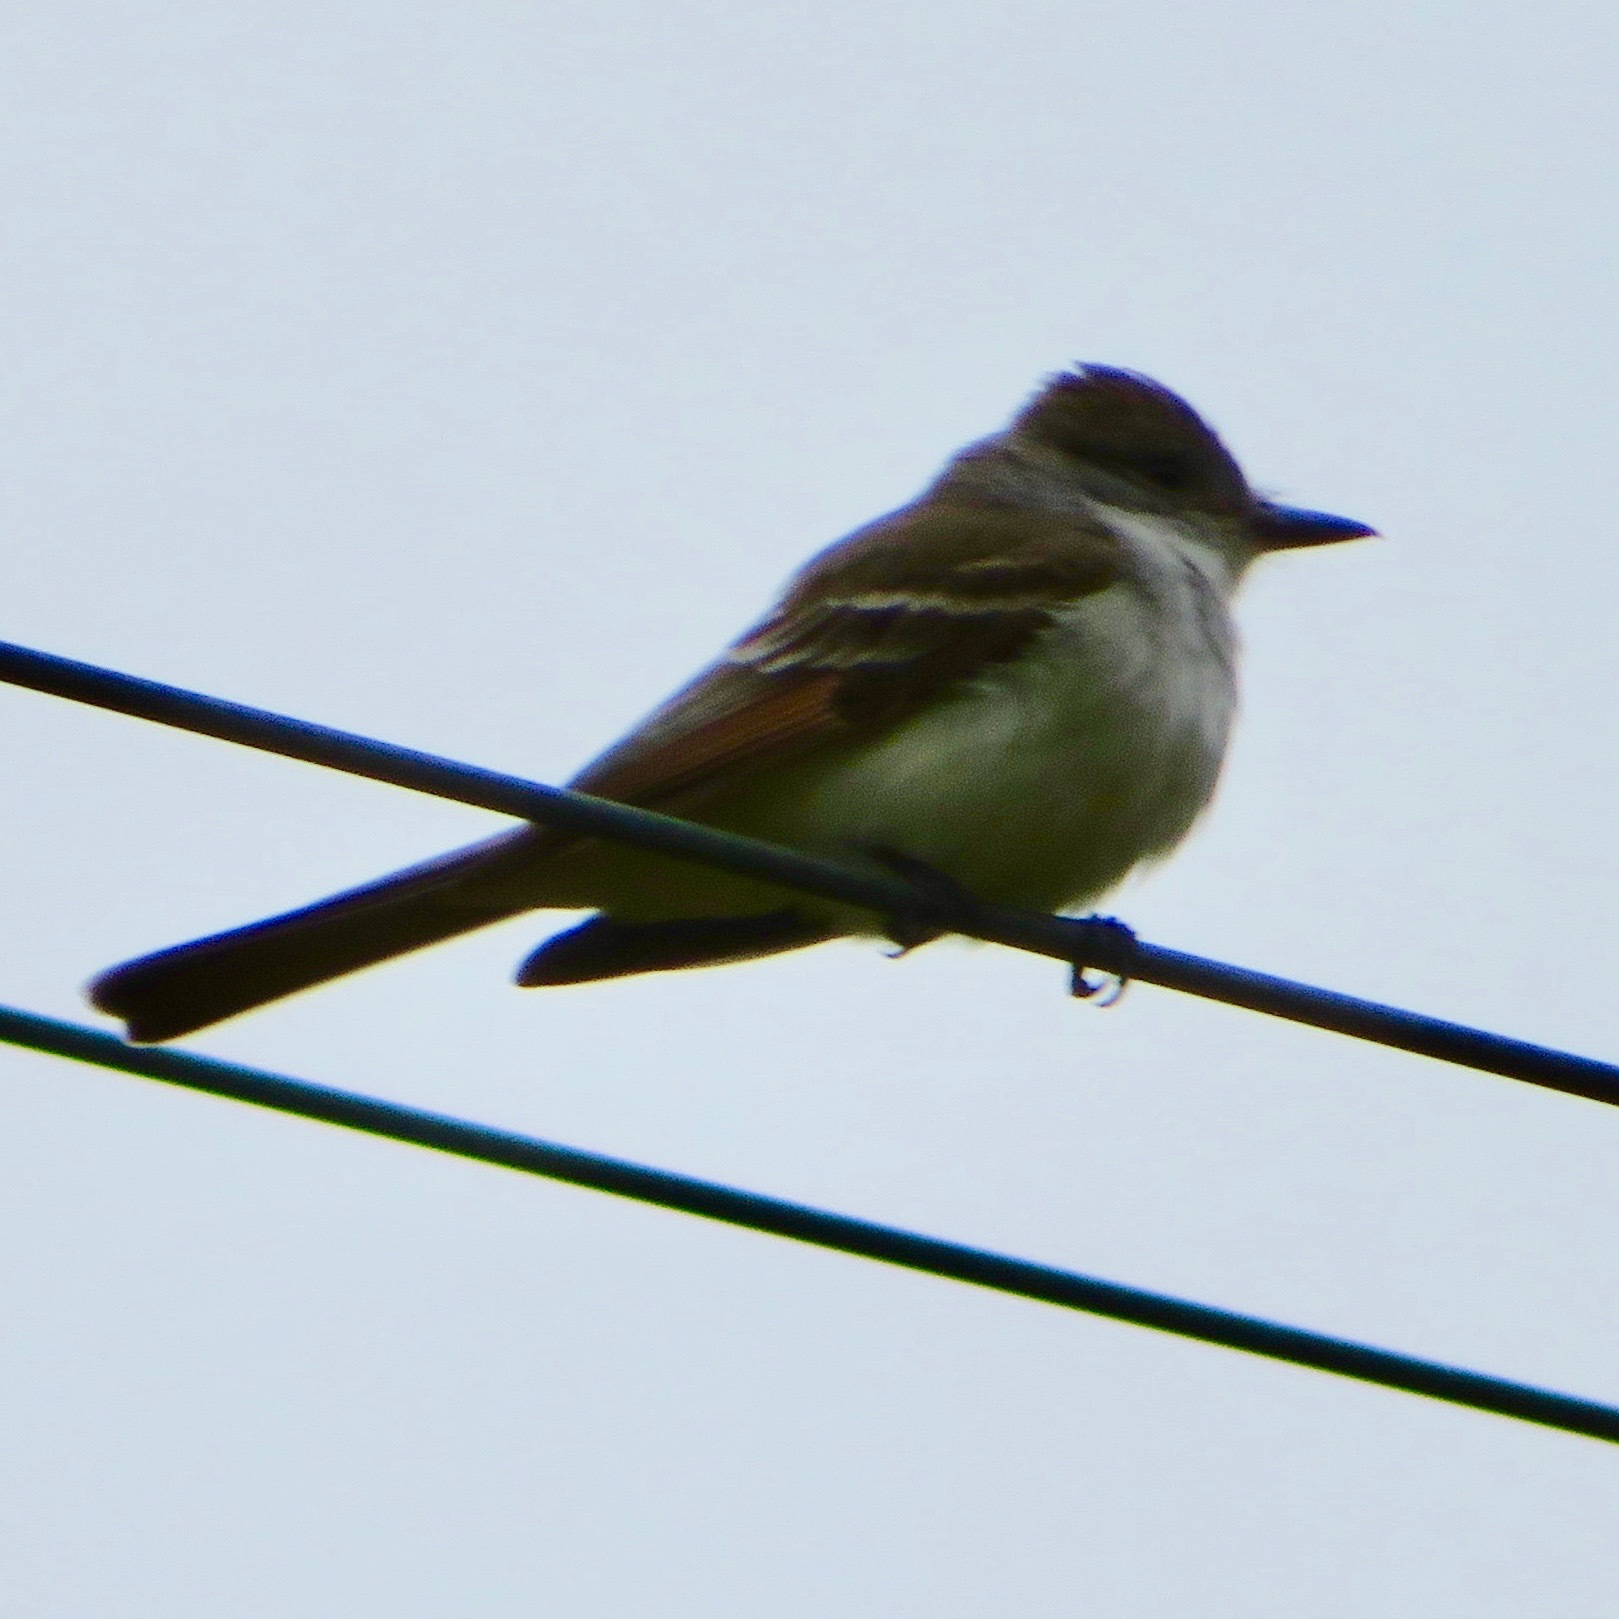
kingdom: Animalia
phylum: Chordata
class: Aves
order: Passeriformes
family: Tyrannidae
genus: Myiarchus
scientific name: Myiarchus cinerascens
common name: Ash-throated flycatcher
